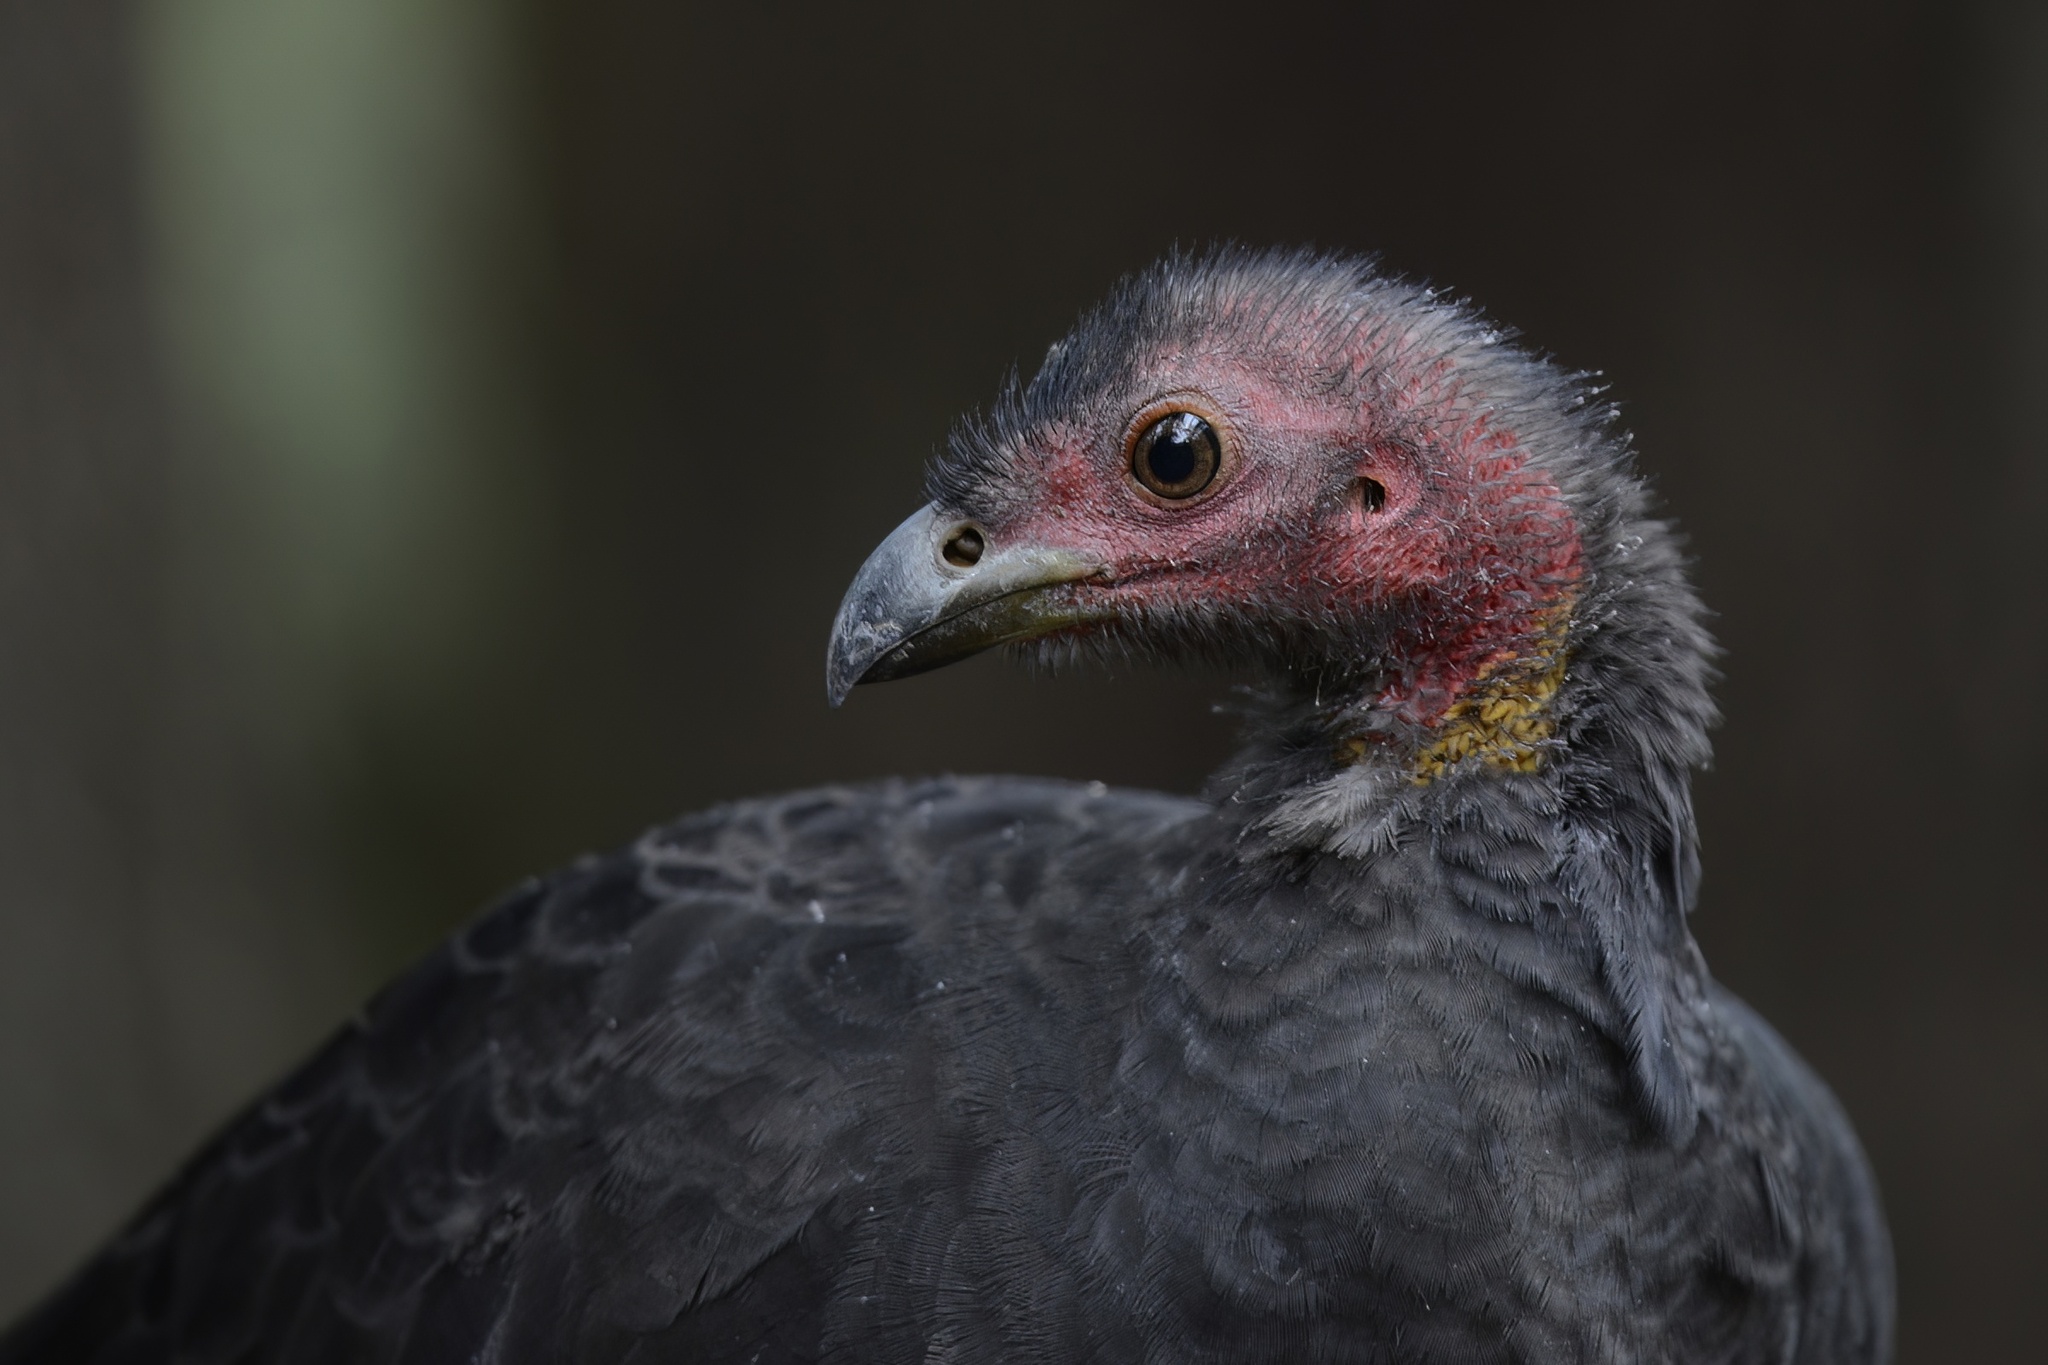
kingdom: Animalia
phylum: Chordata
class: Aves
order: Galliformes
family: Megapodiidae
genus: Alectura
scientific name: Alectura lathami
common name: Australian brushturkey
